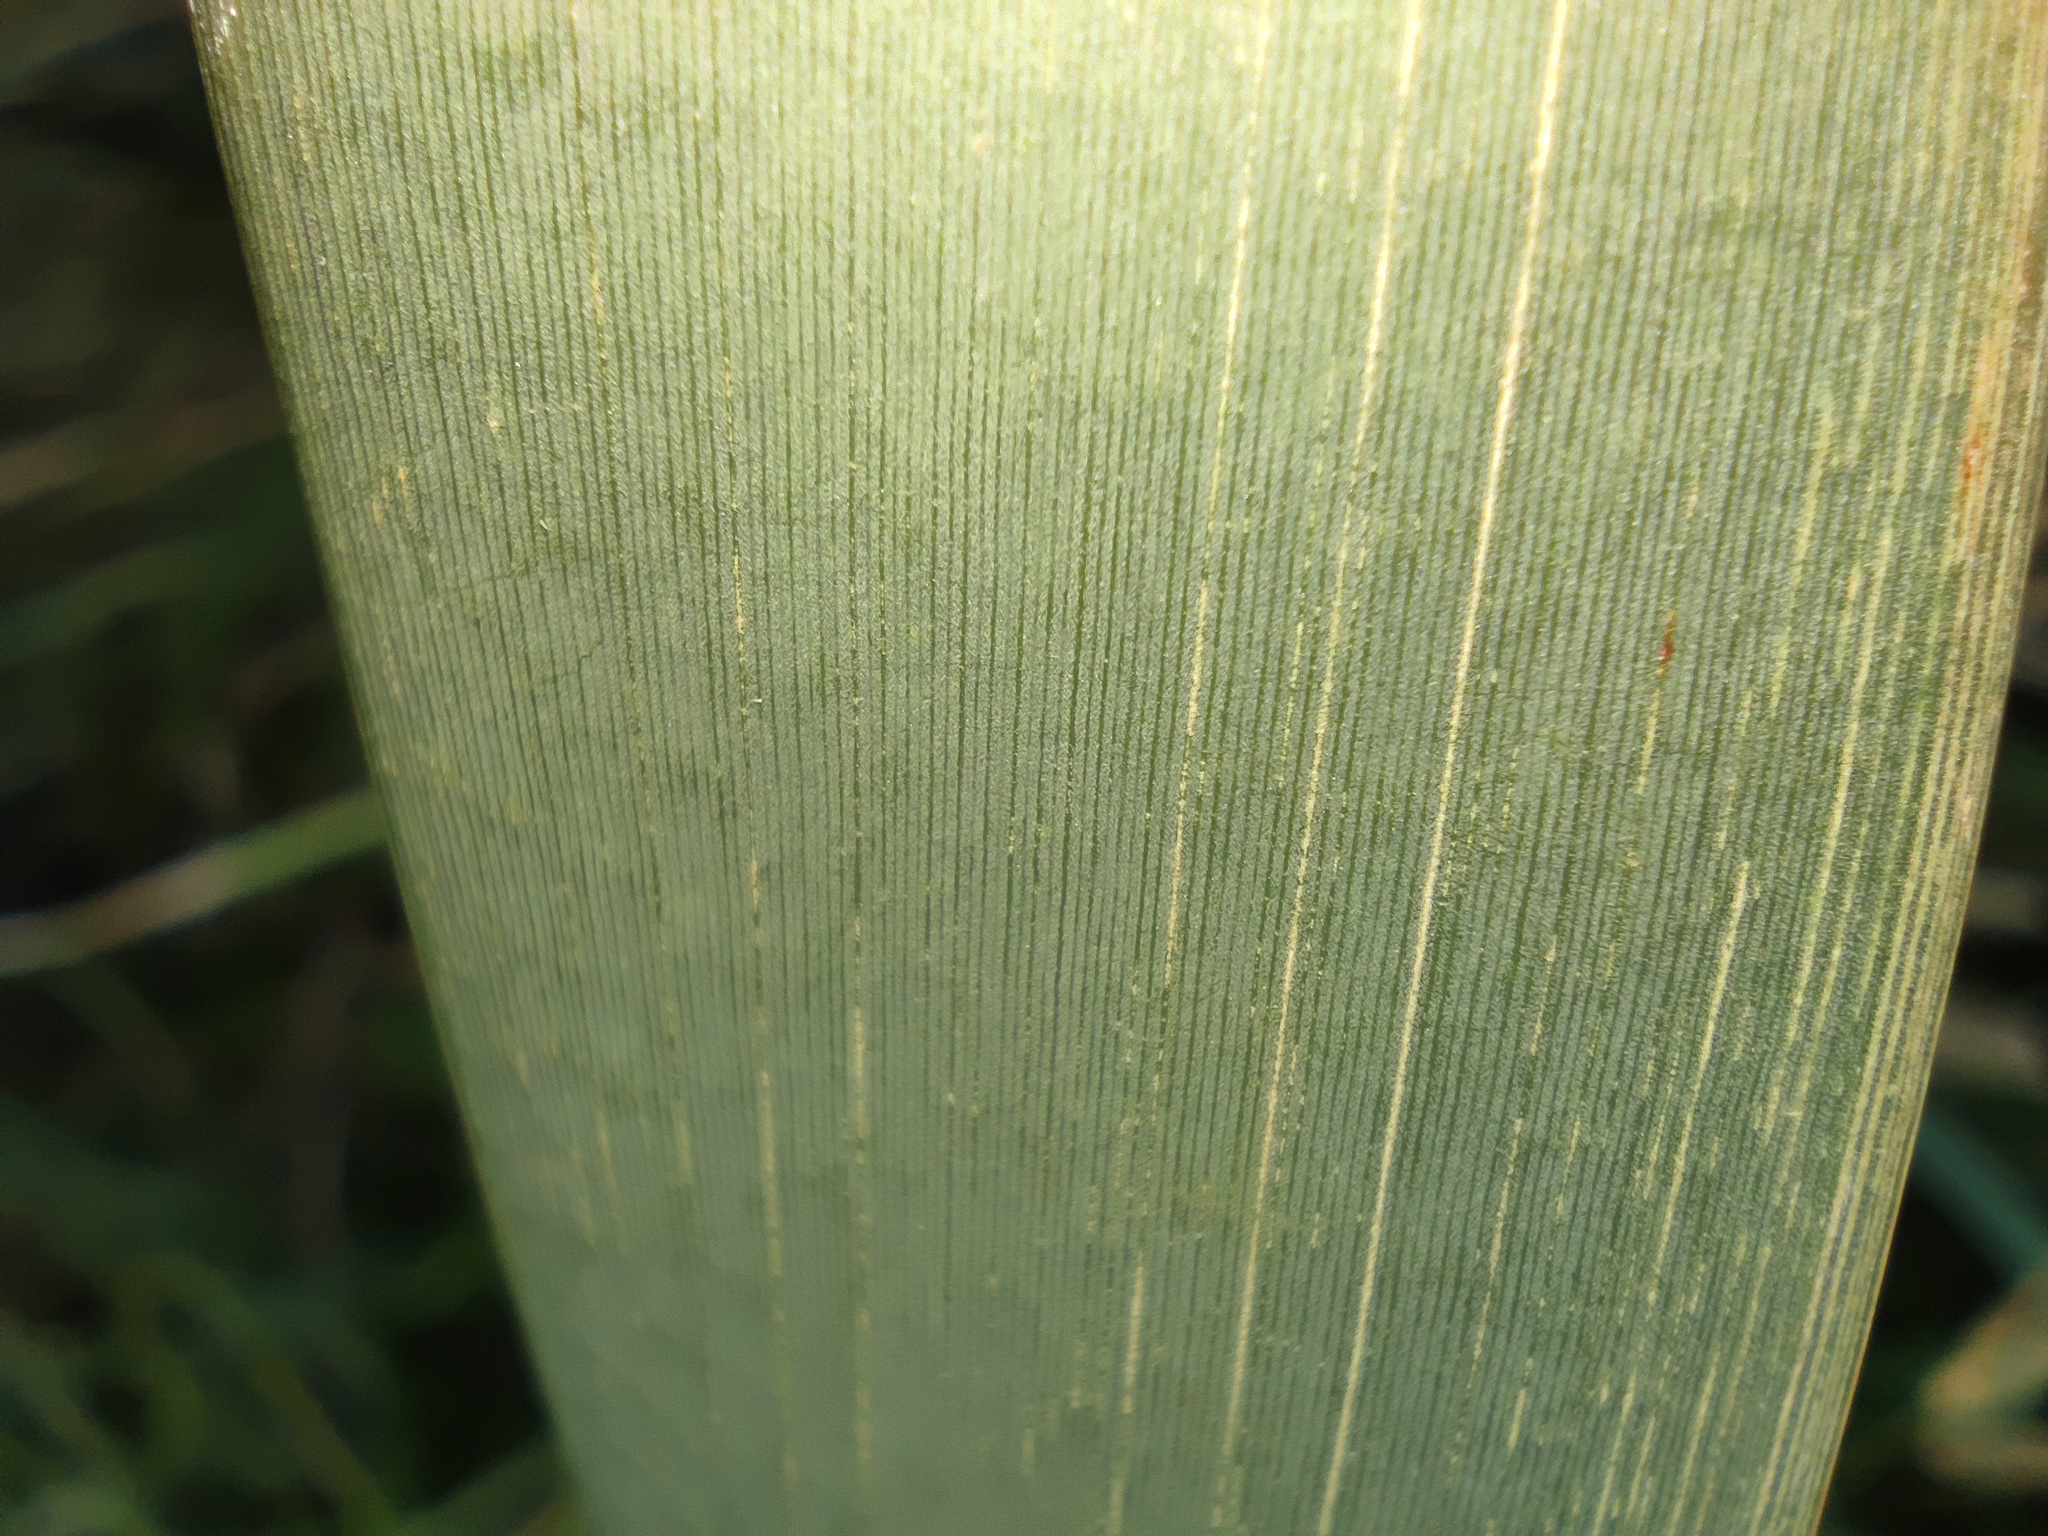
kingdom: Plantae
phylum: Tracheophyta
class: Liliopsida
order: Poales
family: Typhaceae
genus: Typha
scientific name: Typha latifolia
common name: Broadleaf cattail
